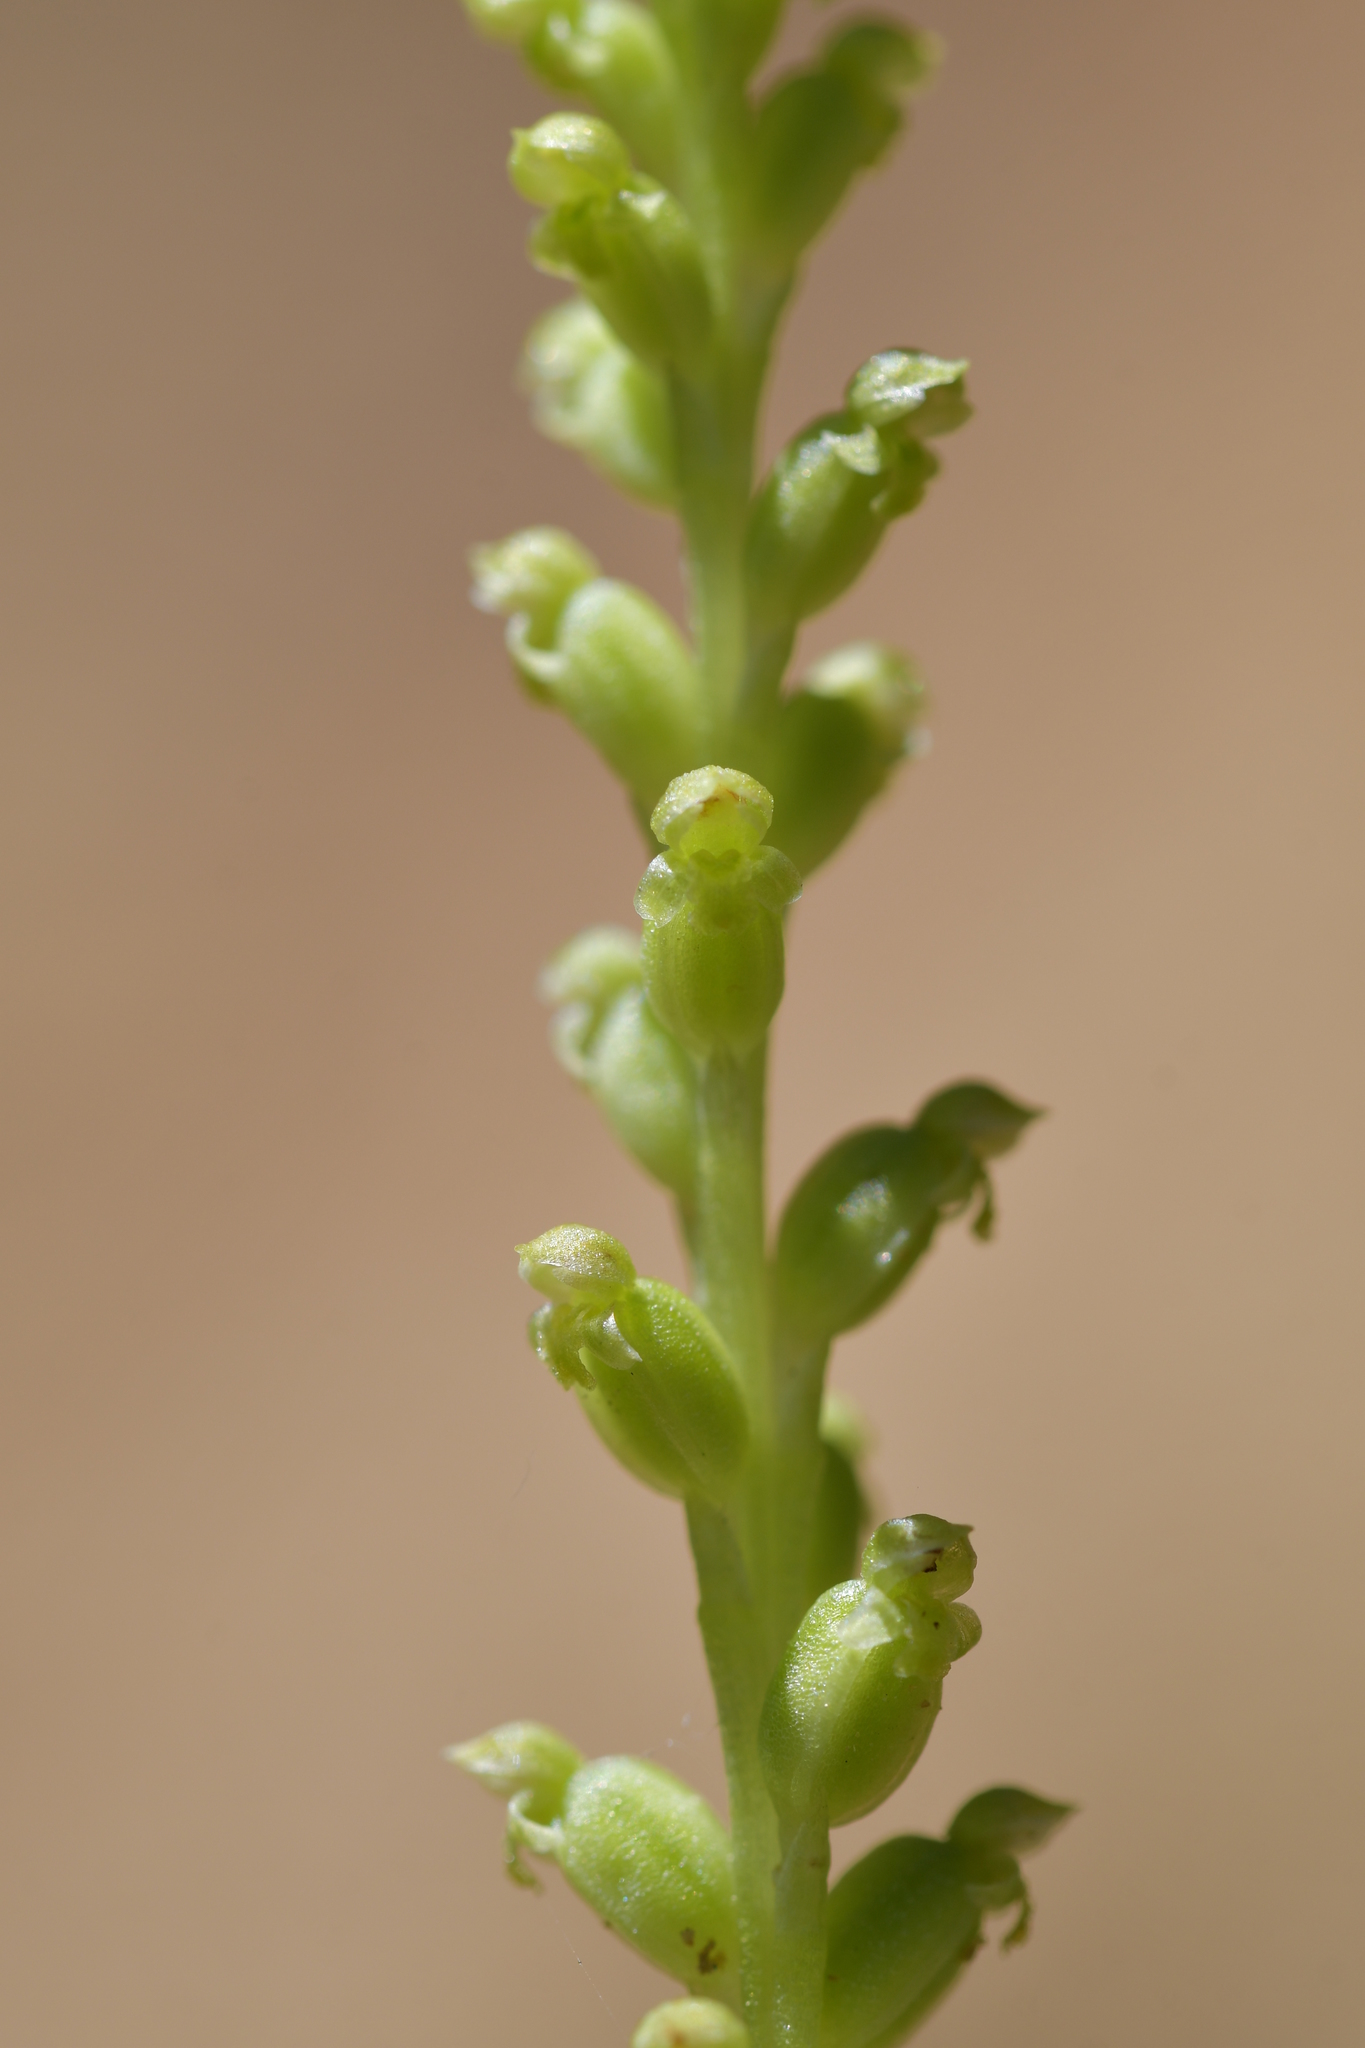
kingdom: Plantae
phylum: Tracheophyta
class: Liliopsida
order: Asparagales
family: Orchidaceae
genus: Microtis
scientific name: Microtis unifolia
